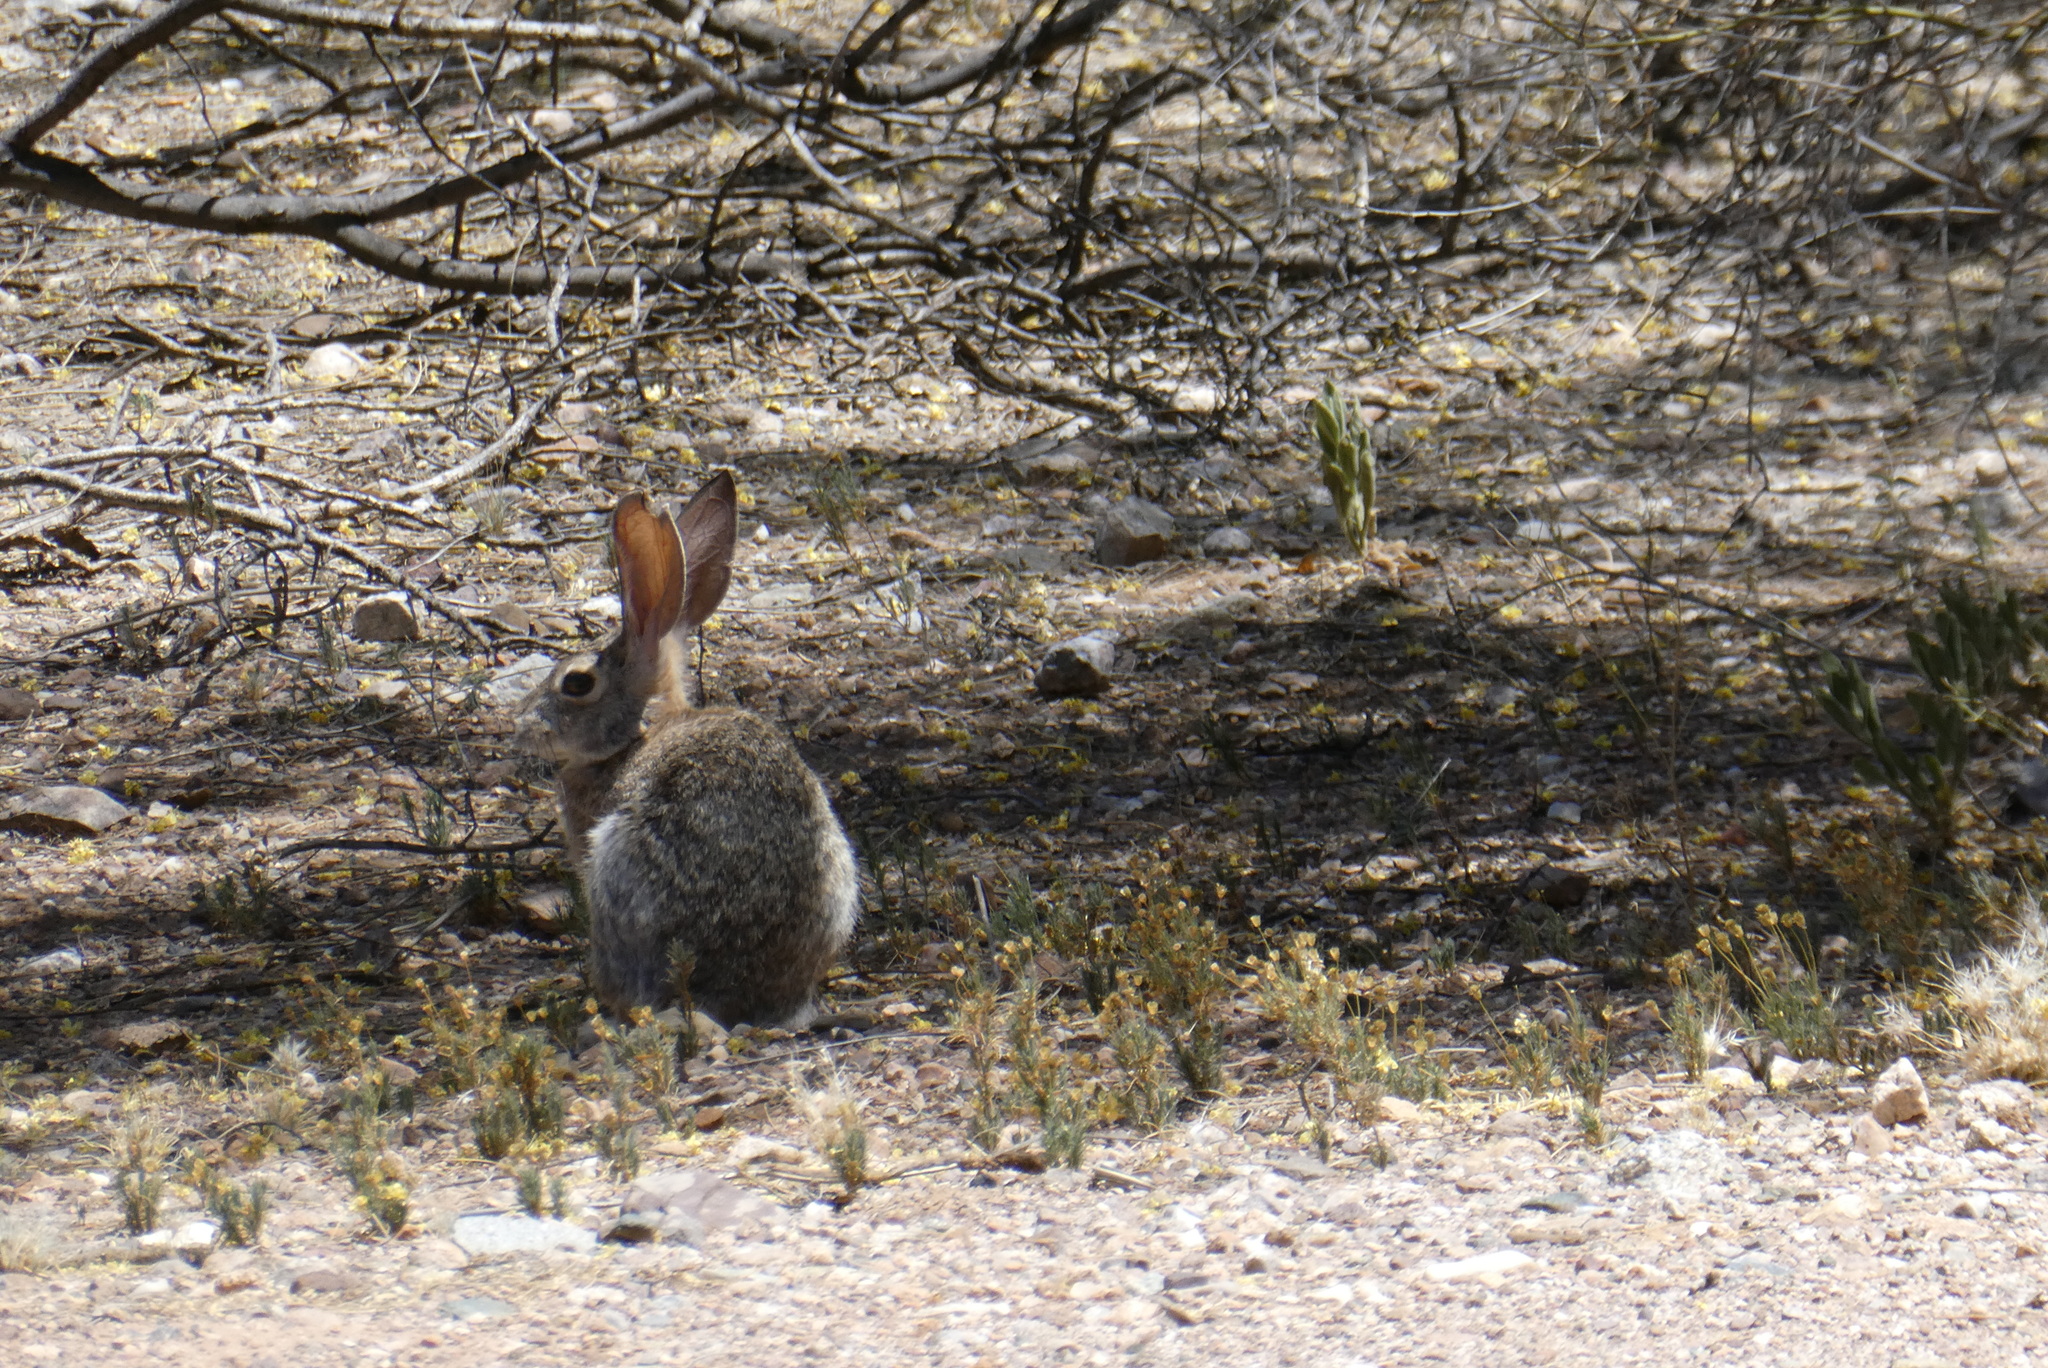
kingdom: Animalia
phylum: Chordata
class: Mammalia
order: Lagomorpha
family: Leporidae
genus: Sylvilagus
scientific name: Sylvilagus audubonii
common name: Desert cottontail
